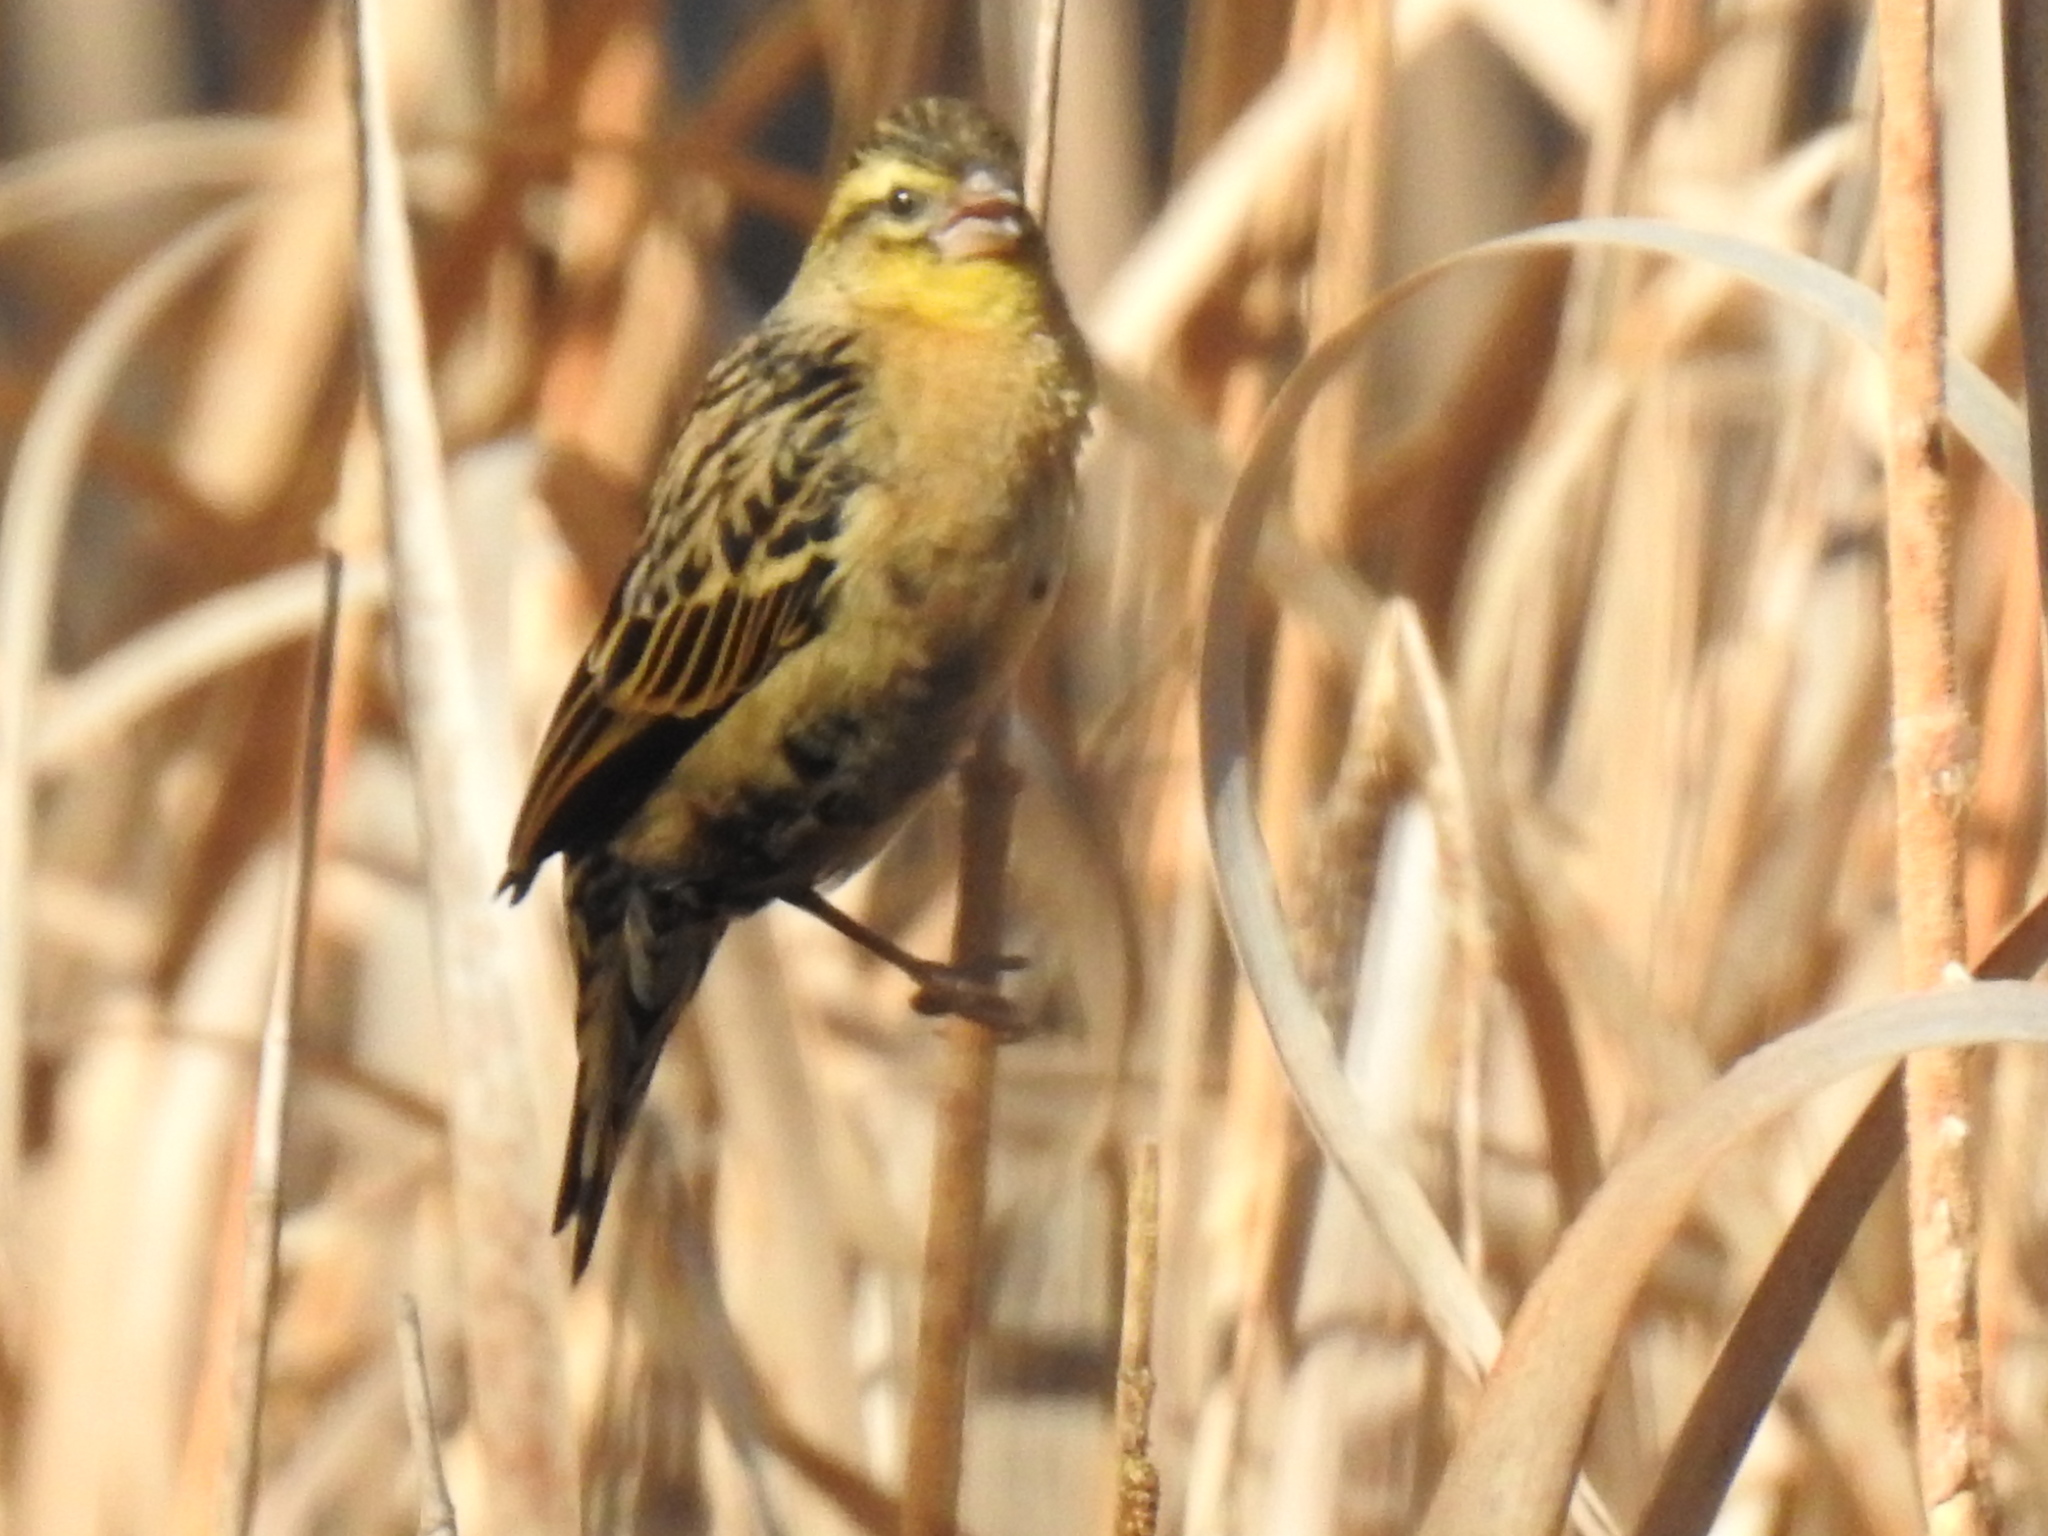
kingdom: Animalia
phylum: Chordata
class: Aves
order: Passeriformes
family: Ploceidae
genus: Euplectes
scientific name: Euplectes orix
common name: Southern red bishop
